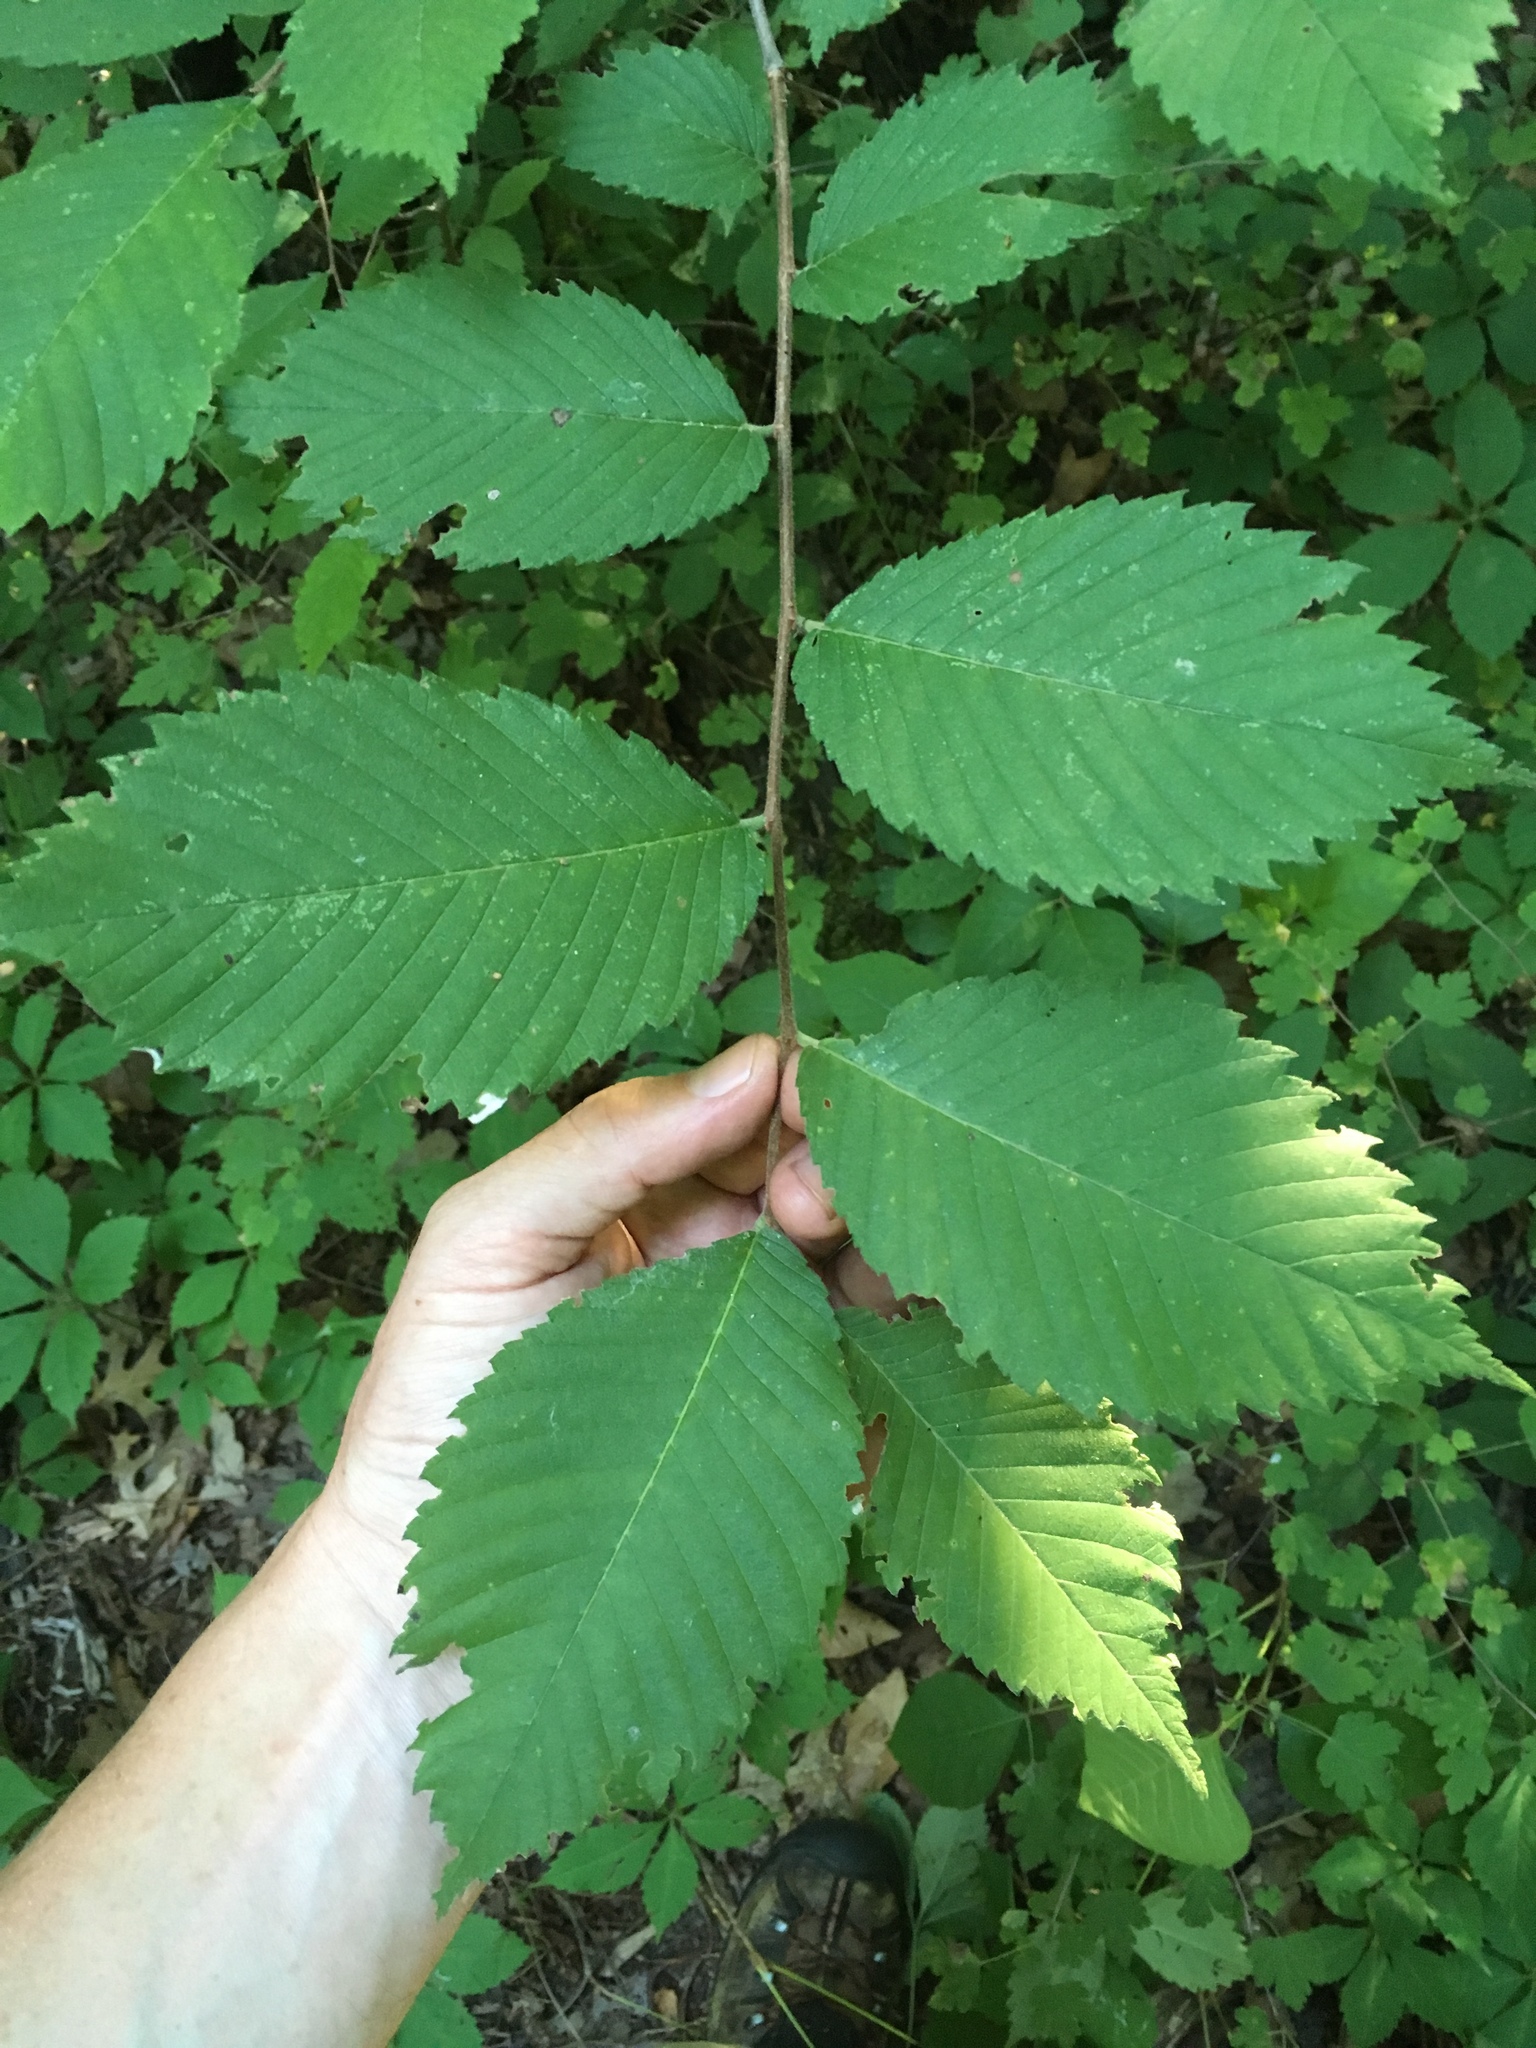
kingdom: Plantae
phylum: Tracheophyta
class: Magnoliopsida
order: Rosales
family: Ulmaceae
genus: Ulmus
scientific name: Ulmus americana
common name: American elm
